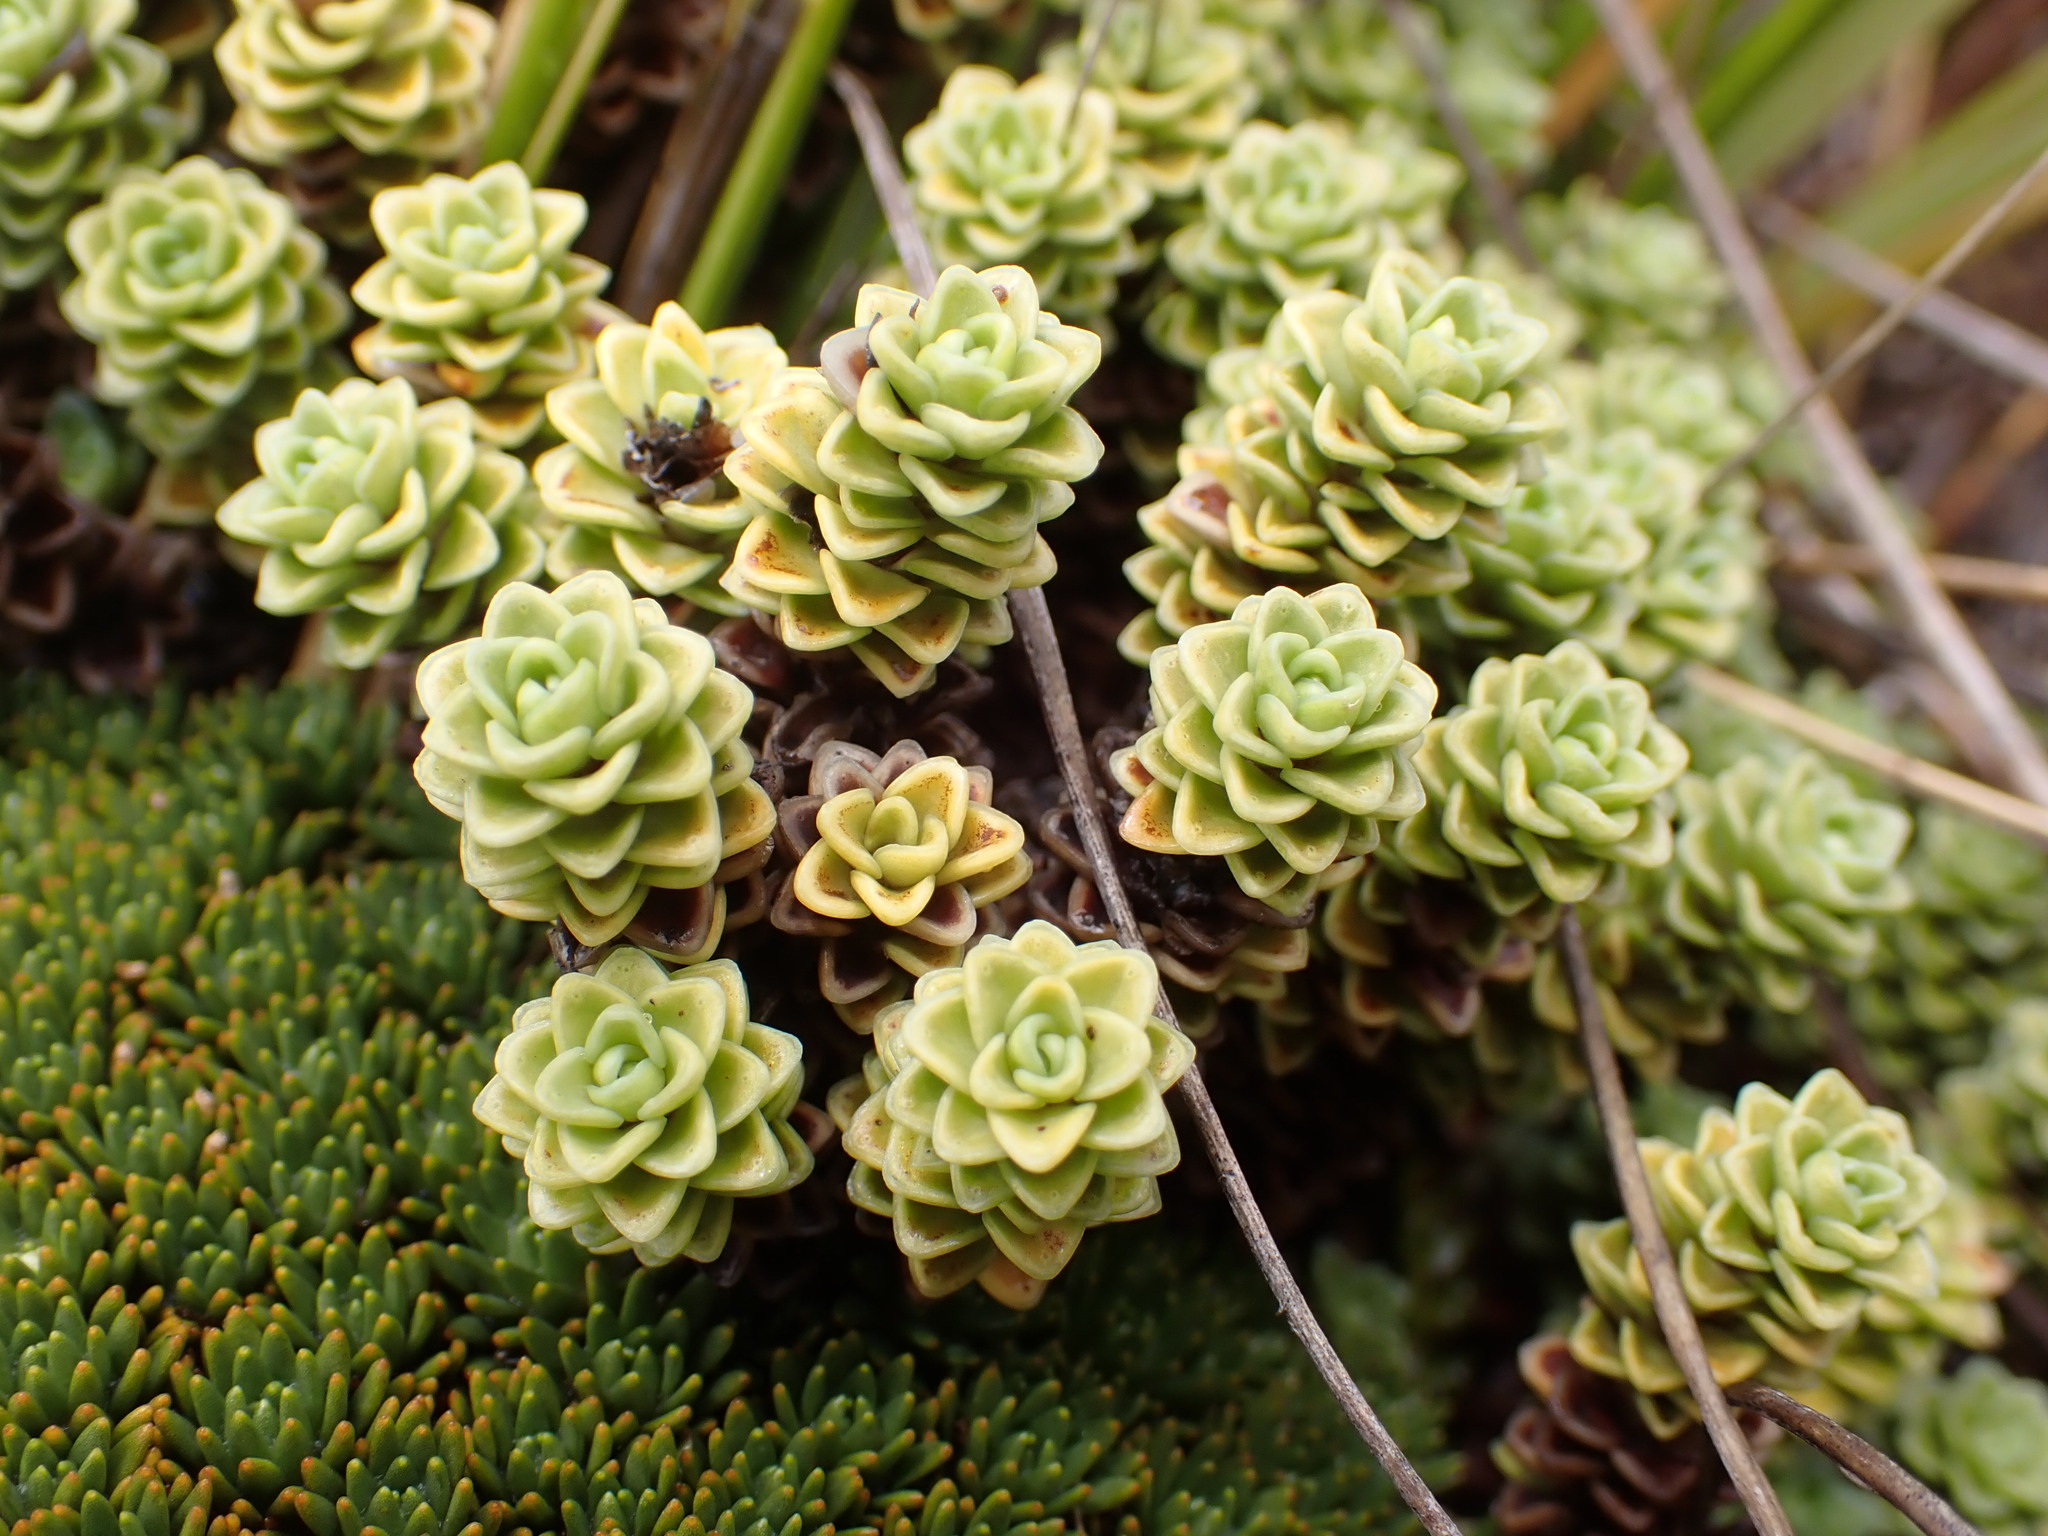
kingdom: Plantae
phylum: Tracheophyta
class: Magnoliopsida
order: Asterales
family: Stylidiaceae
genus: Forstera
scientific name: Forstera sedifolia
